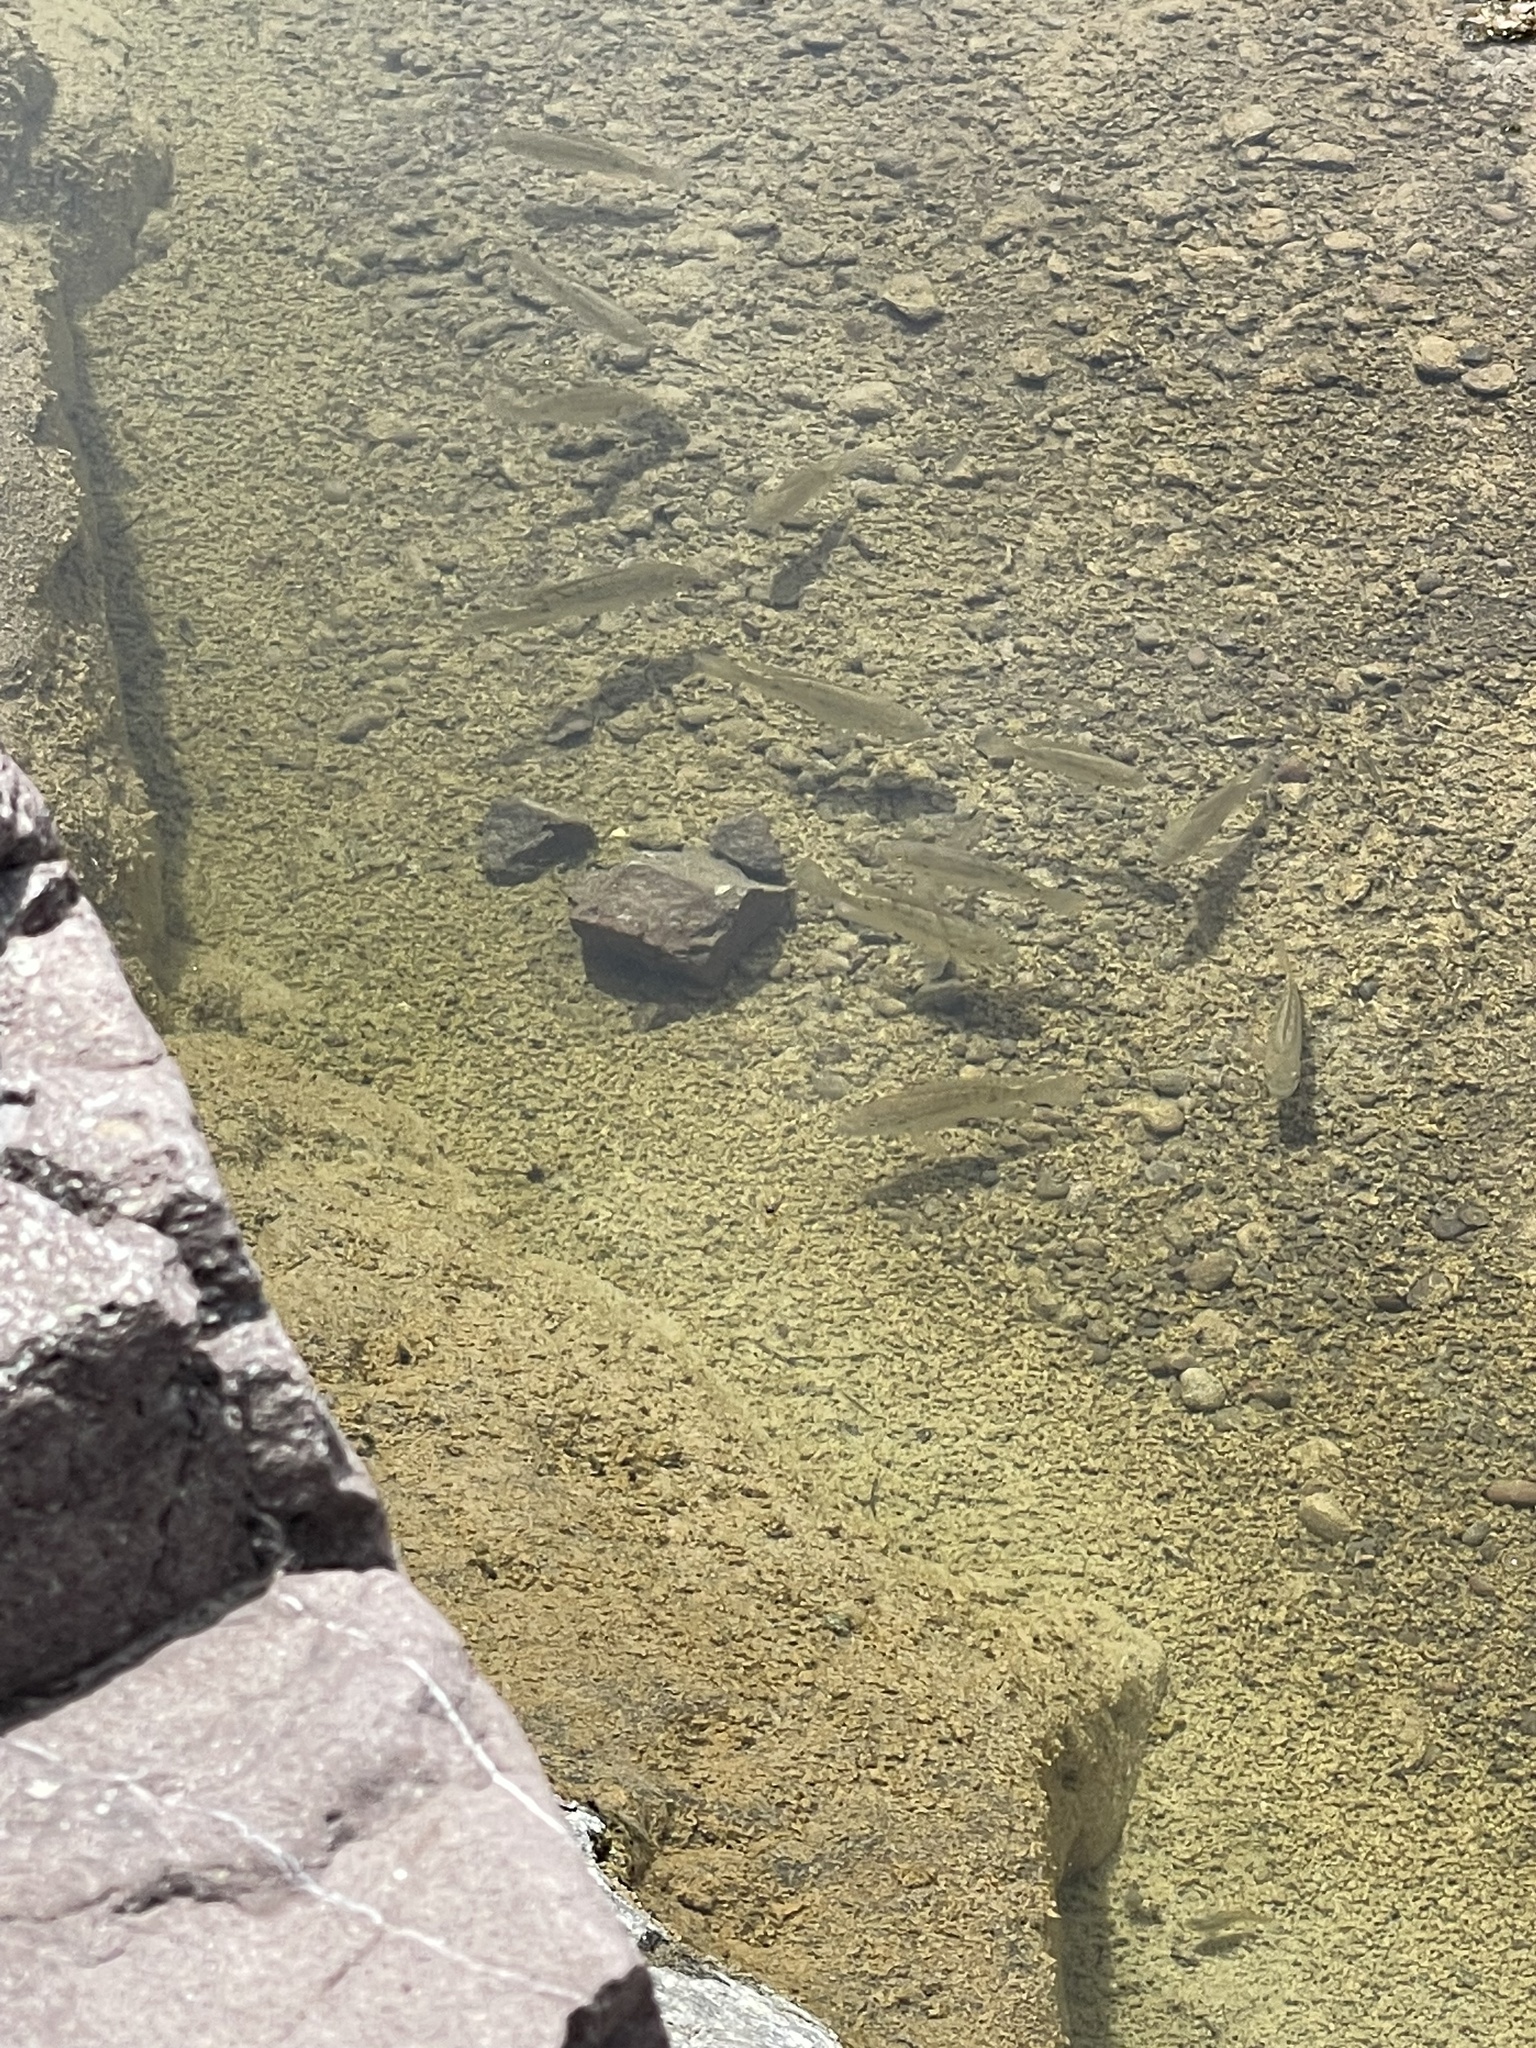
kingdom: Animalia
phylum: Chordata
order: Perciformes
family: Cichlidae
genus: Oreochromis
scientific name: Oreochromis mossambicus
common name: Mozambique tilapia
